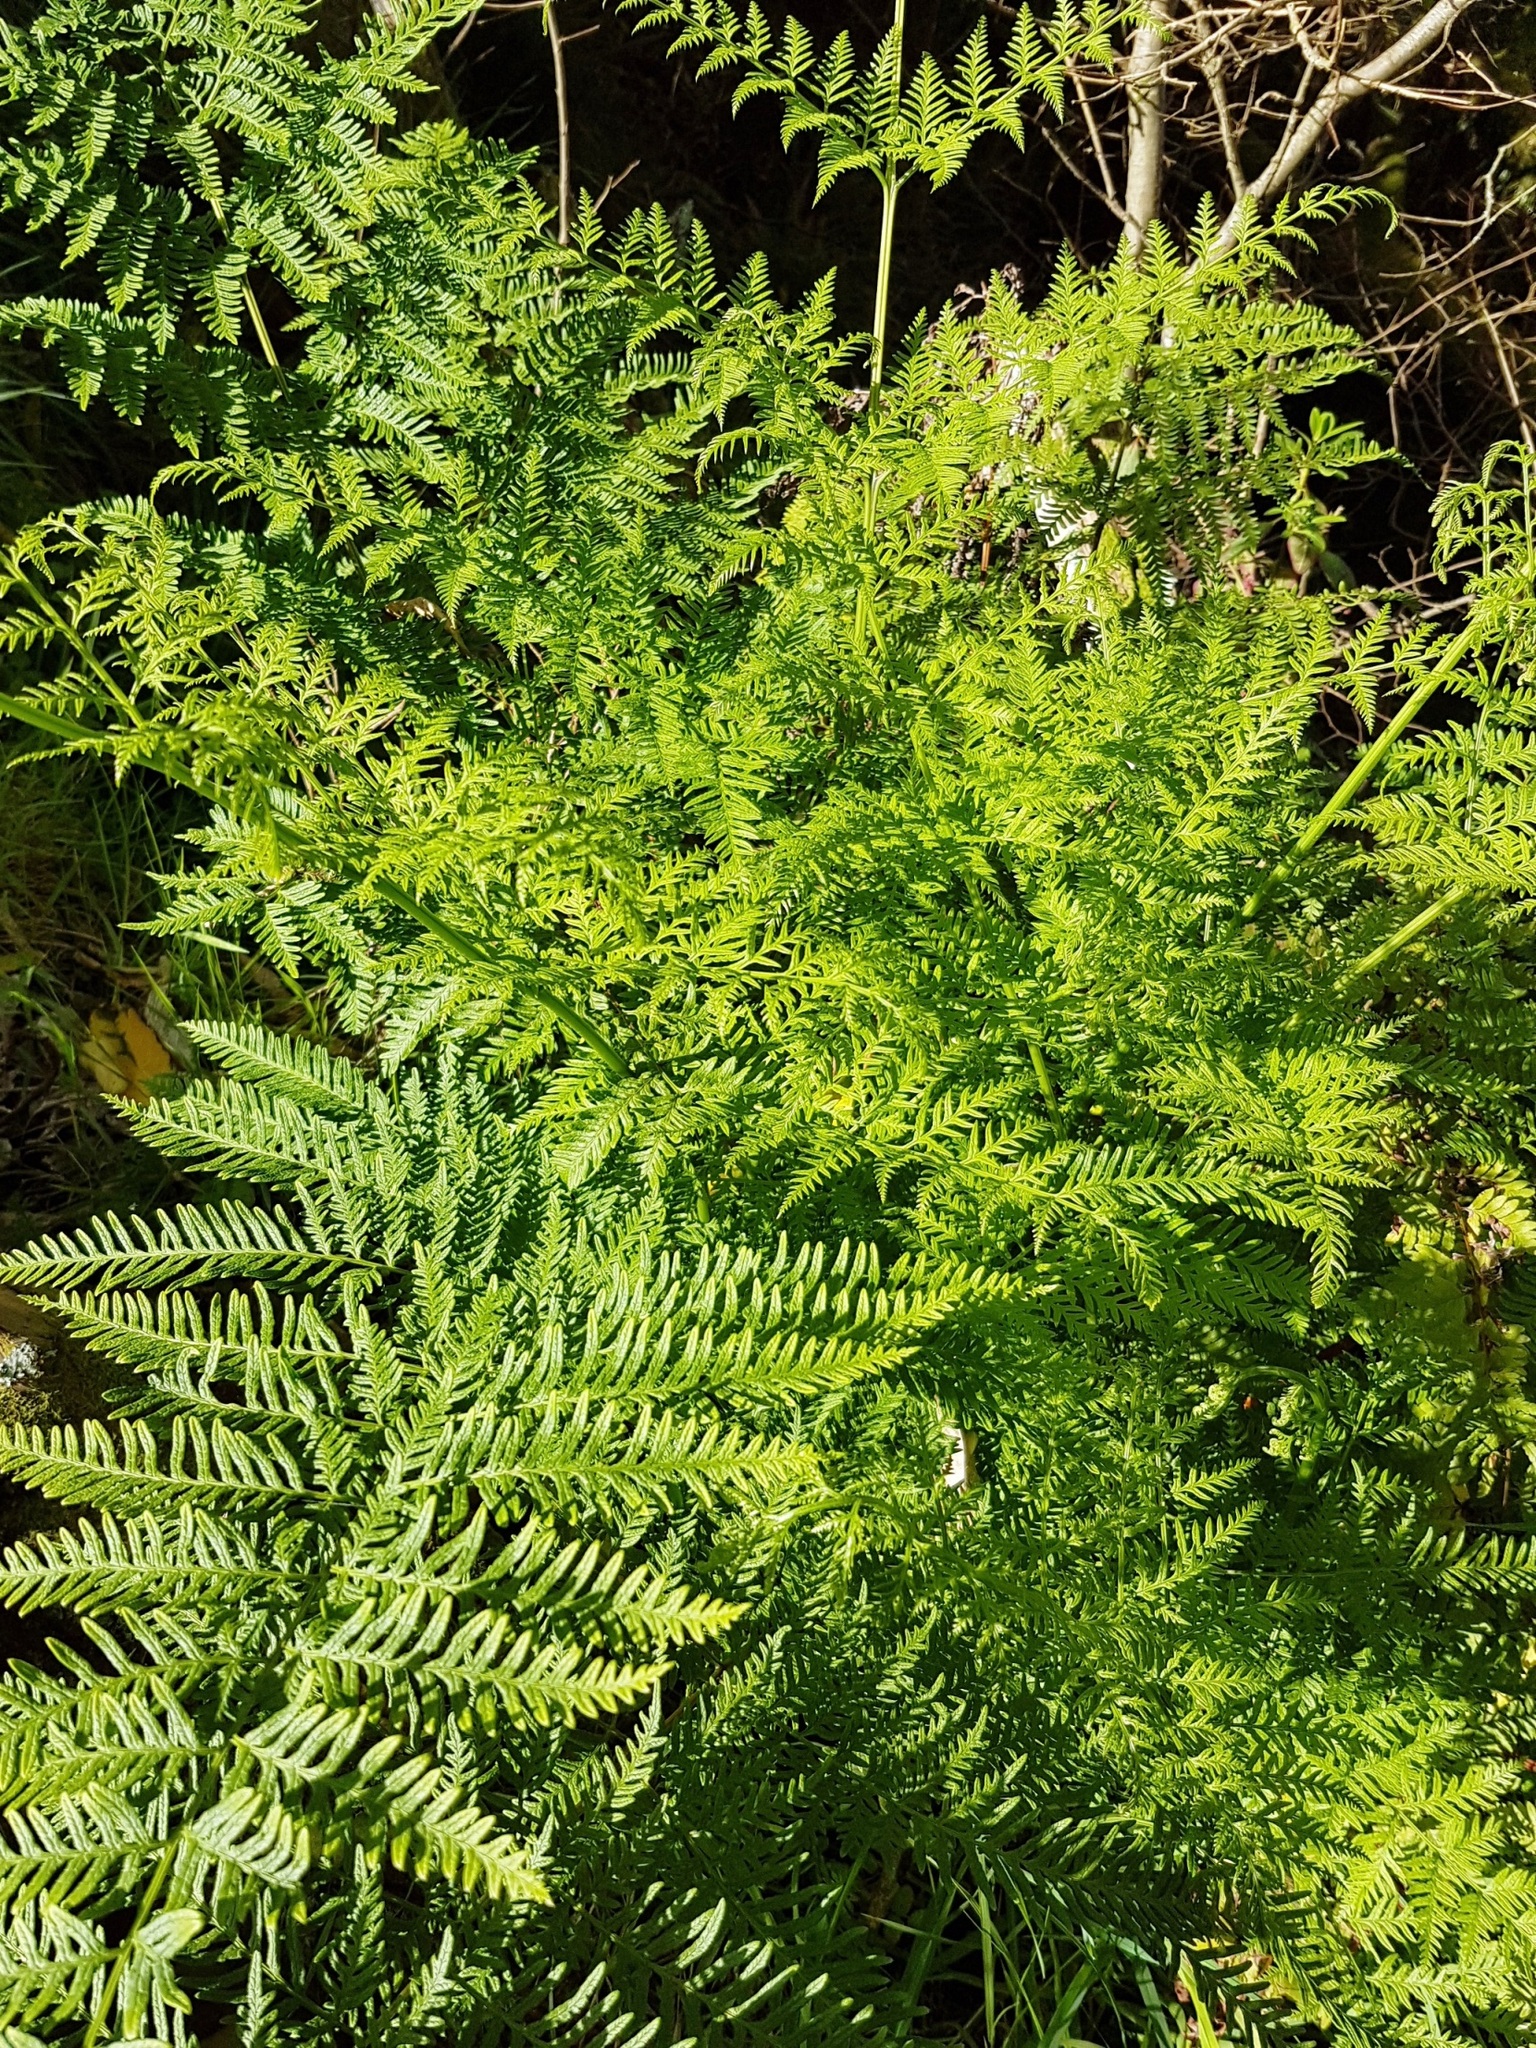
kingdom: Plantae
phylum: Tracheophyta
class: Polypodiopsida
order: Polypodiales
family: Pteridaceae
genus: Pteris
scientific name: Pteris tremula
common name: Australian brake
